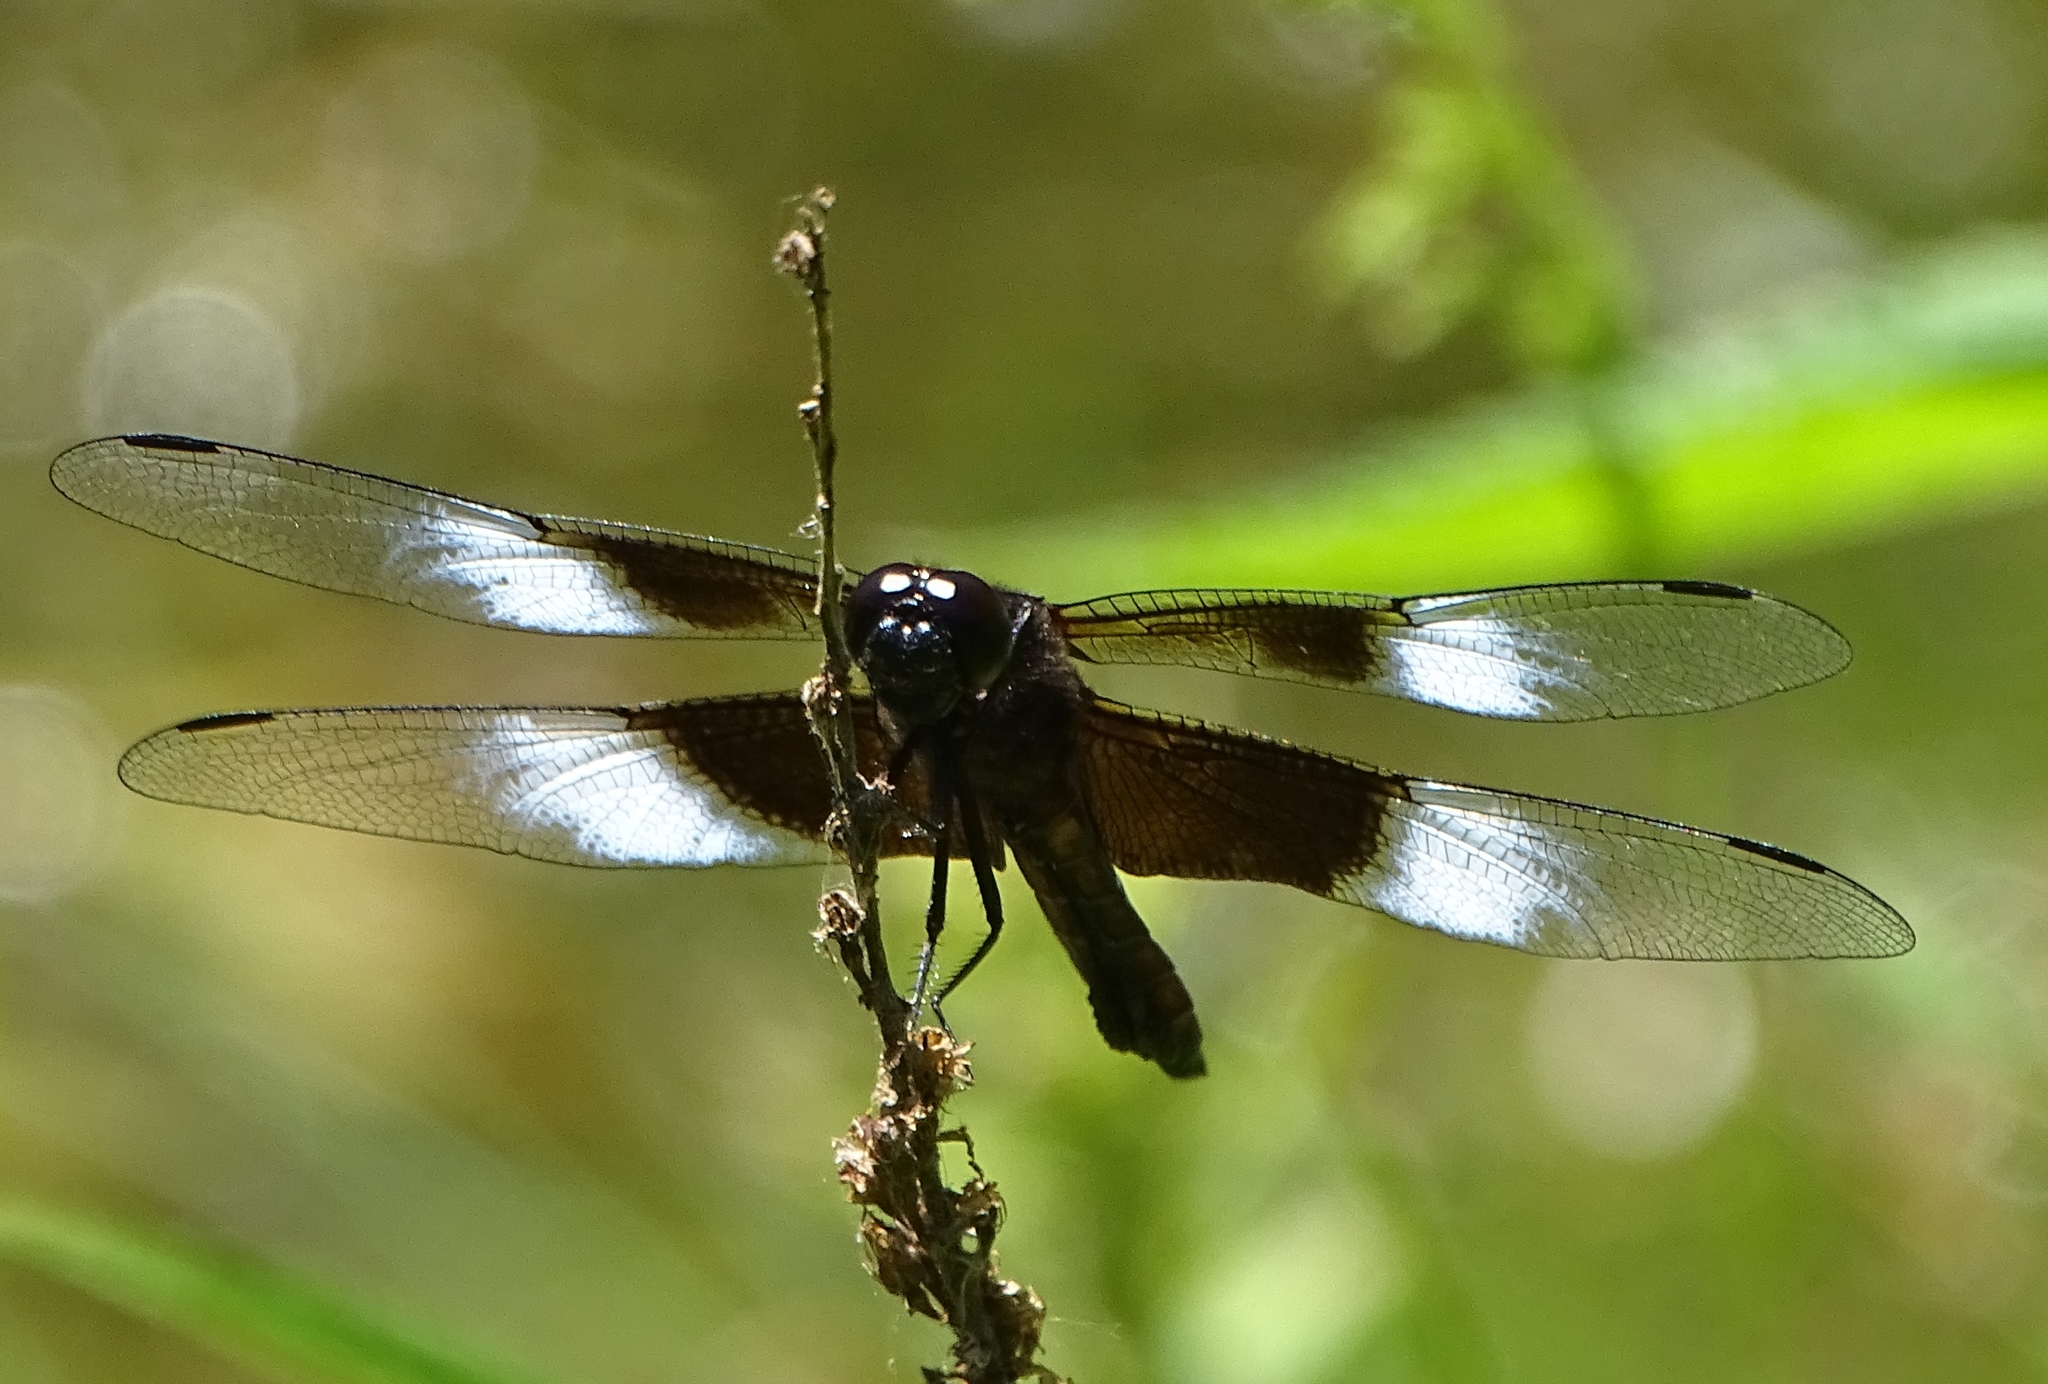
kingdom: Animalia
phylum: Arthropoda
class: Insecta
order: Odonata
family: Libellulidae
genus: Libellula
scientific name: Libellula luctuosa
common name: Widow skimmer
